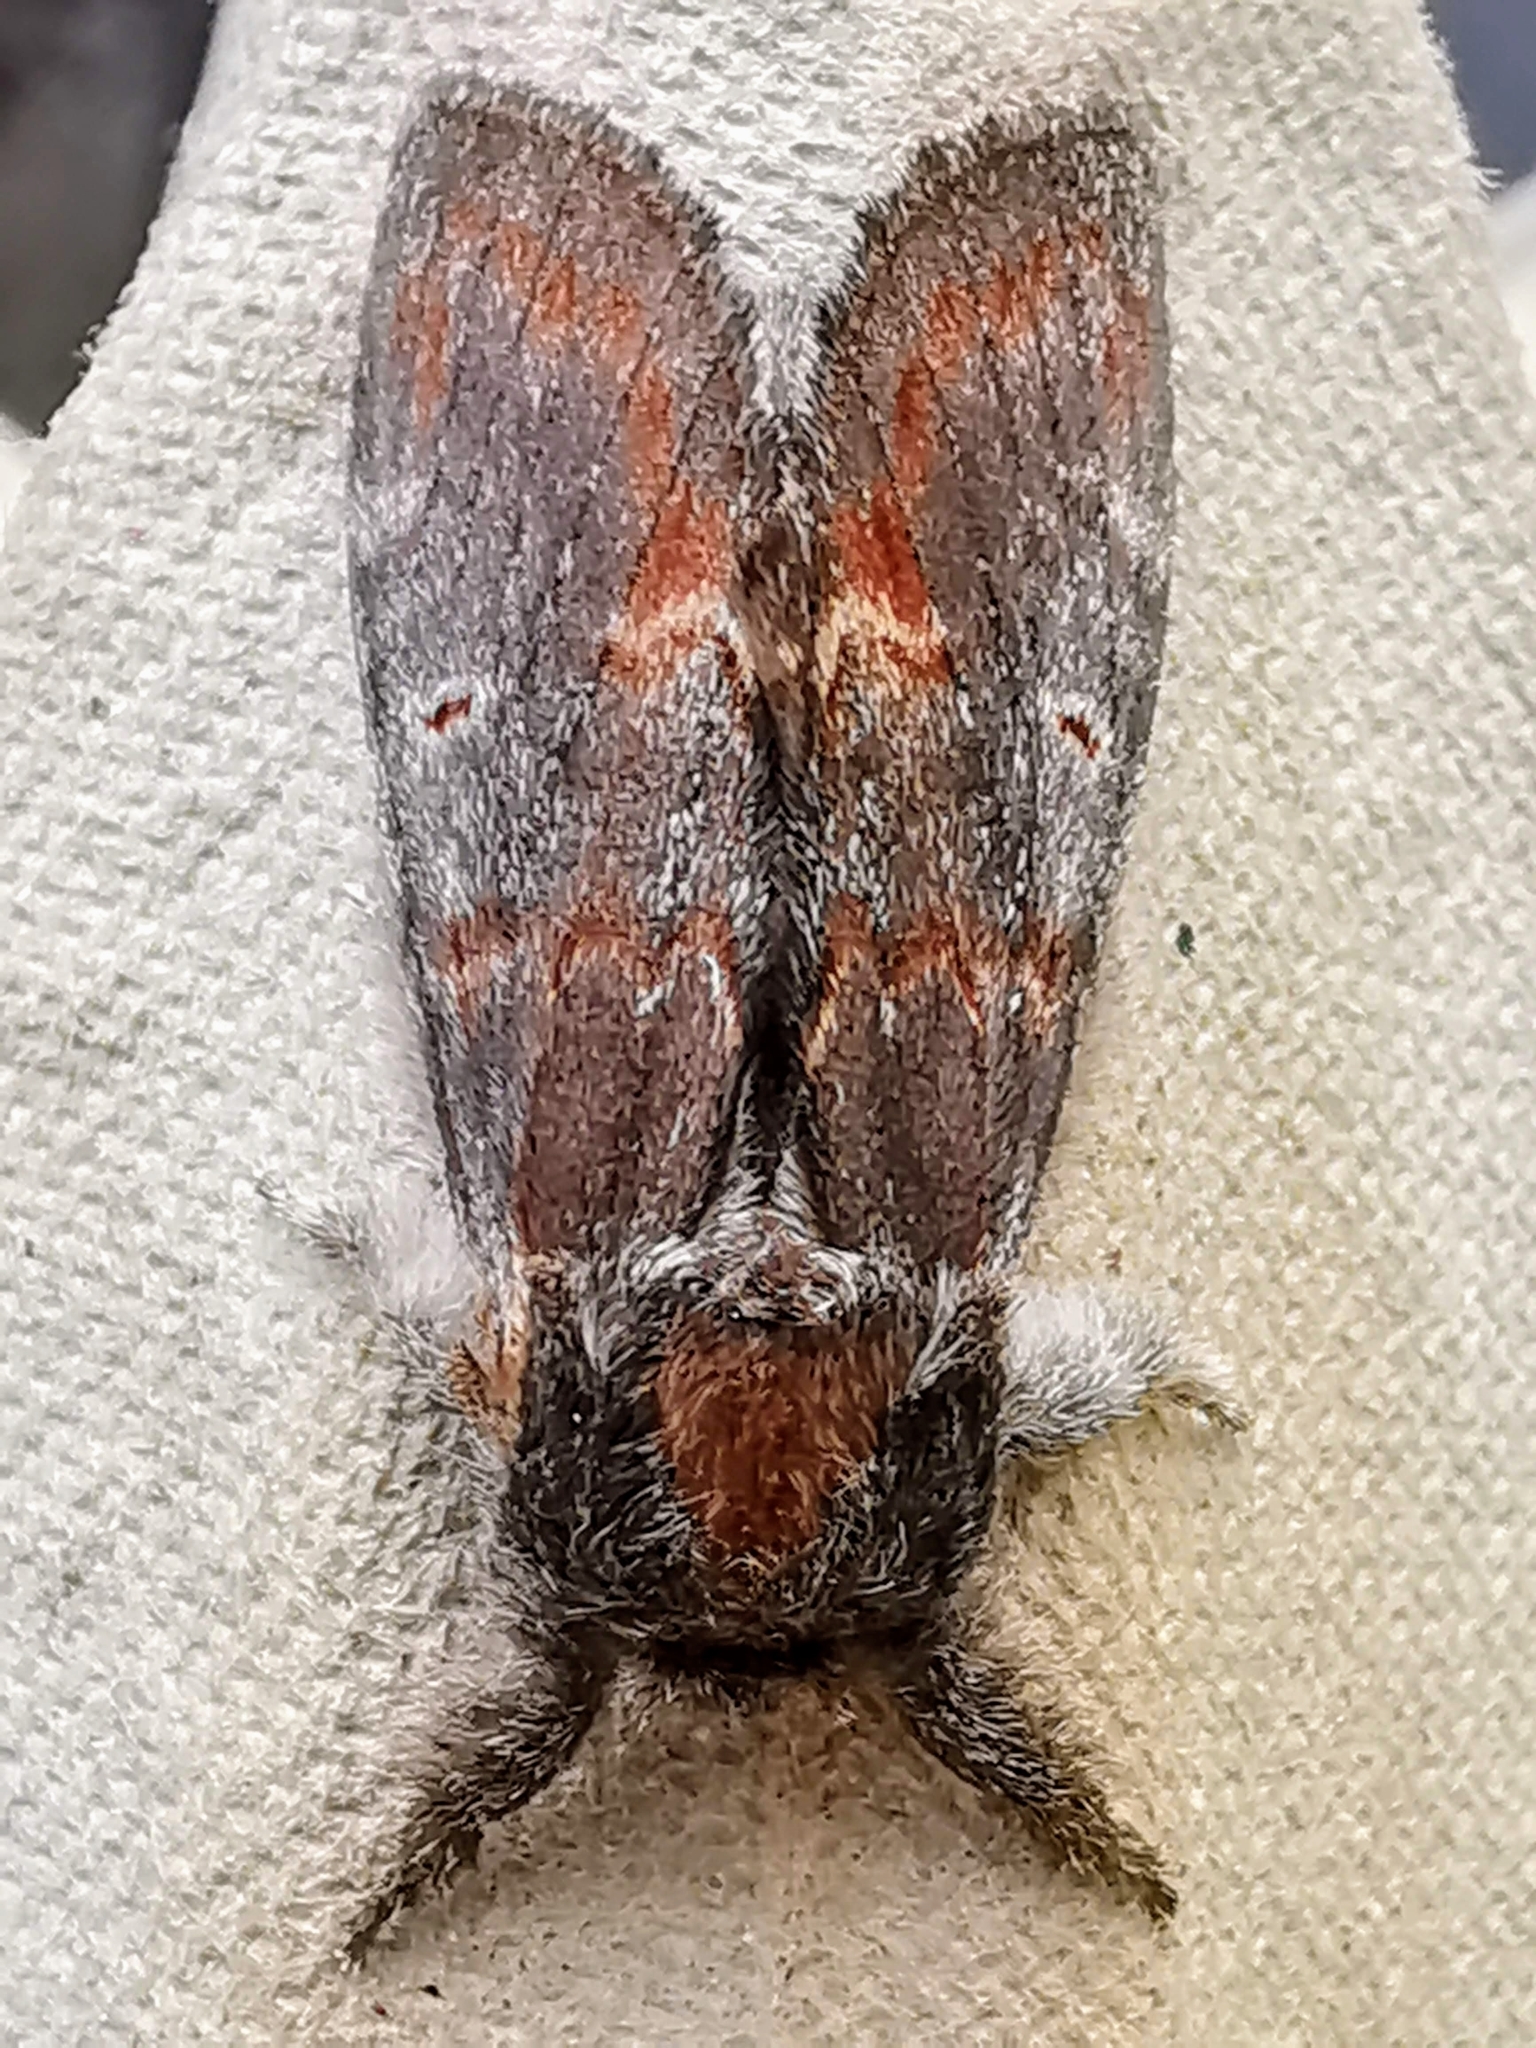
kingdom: Animalia
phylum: Arthropoda
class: Insecta
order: Lepidoptera
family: Notodontidae
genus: Notodonta
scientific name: Notodonta dromedarius
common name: Iron prominent
